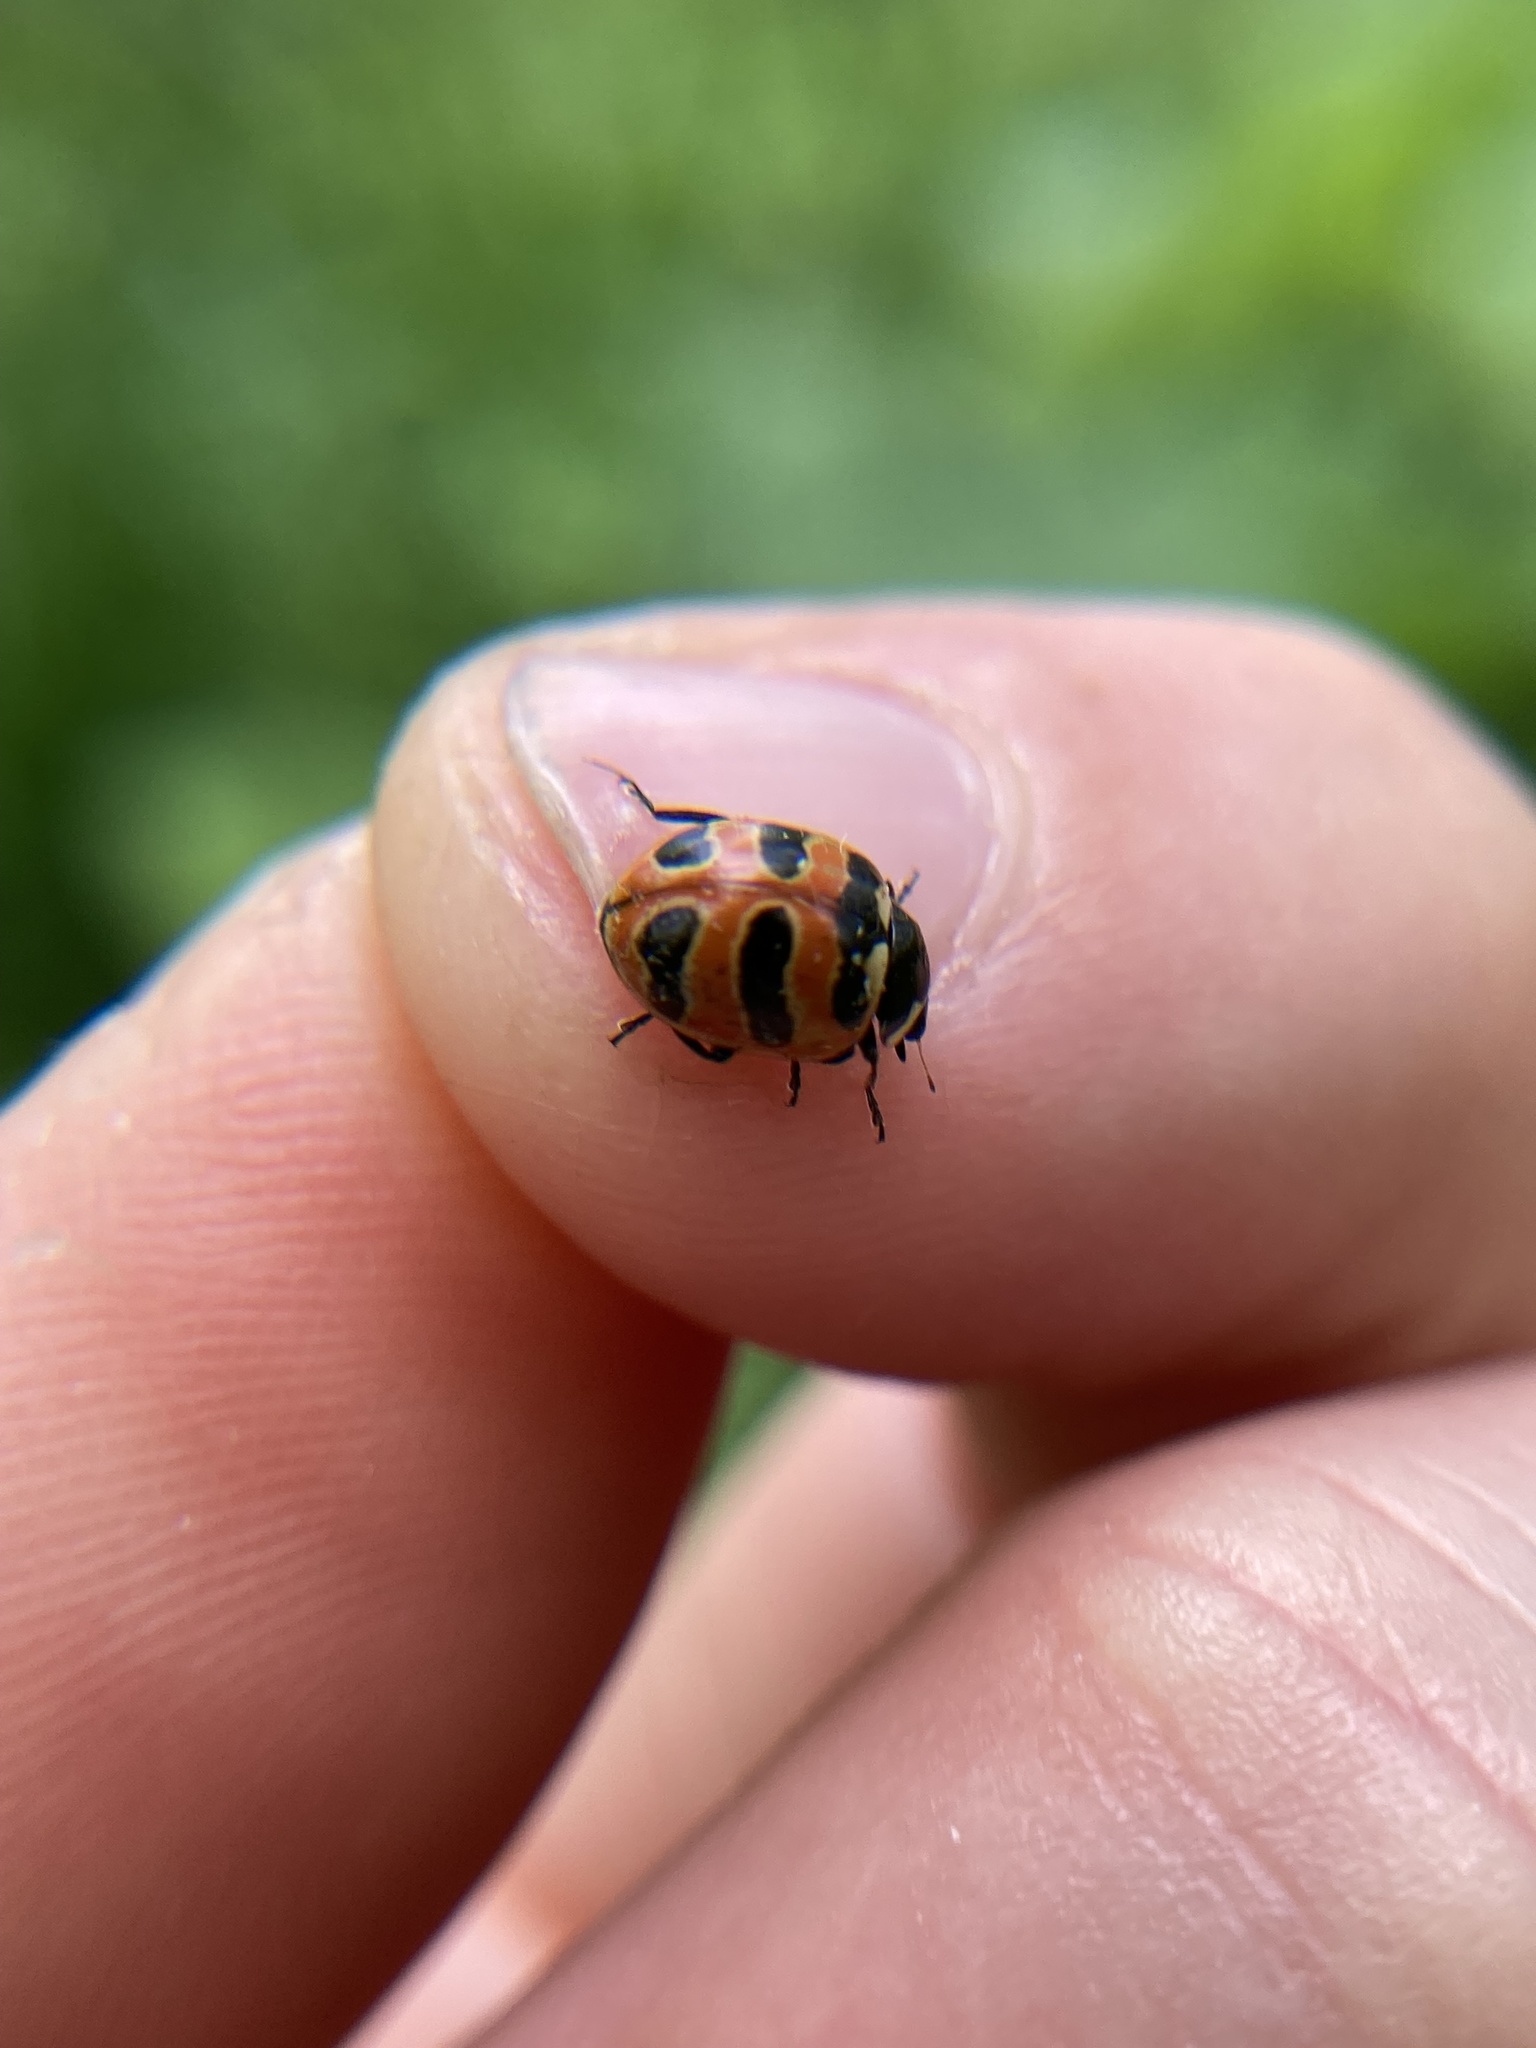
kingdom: Animalia
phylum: Arthropoda
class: Insecta
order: Coleoptera
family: Coccinellidae
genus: Coccinella
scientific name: Coccinella trifasciata
